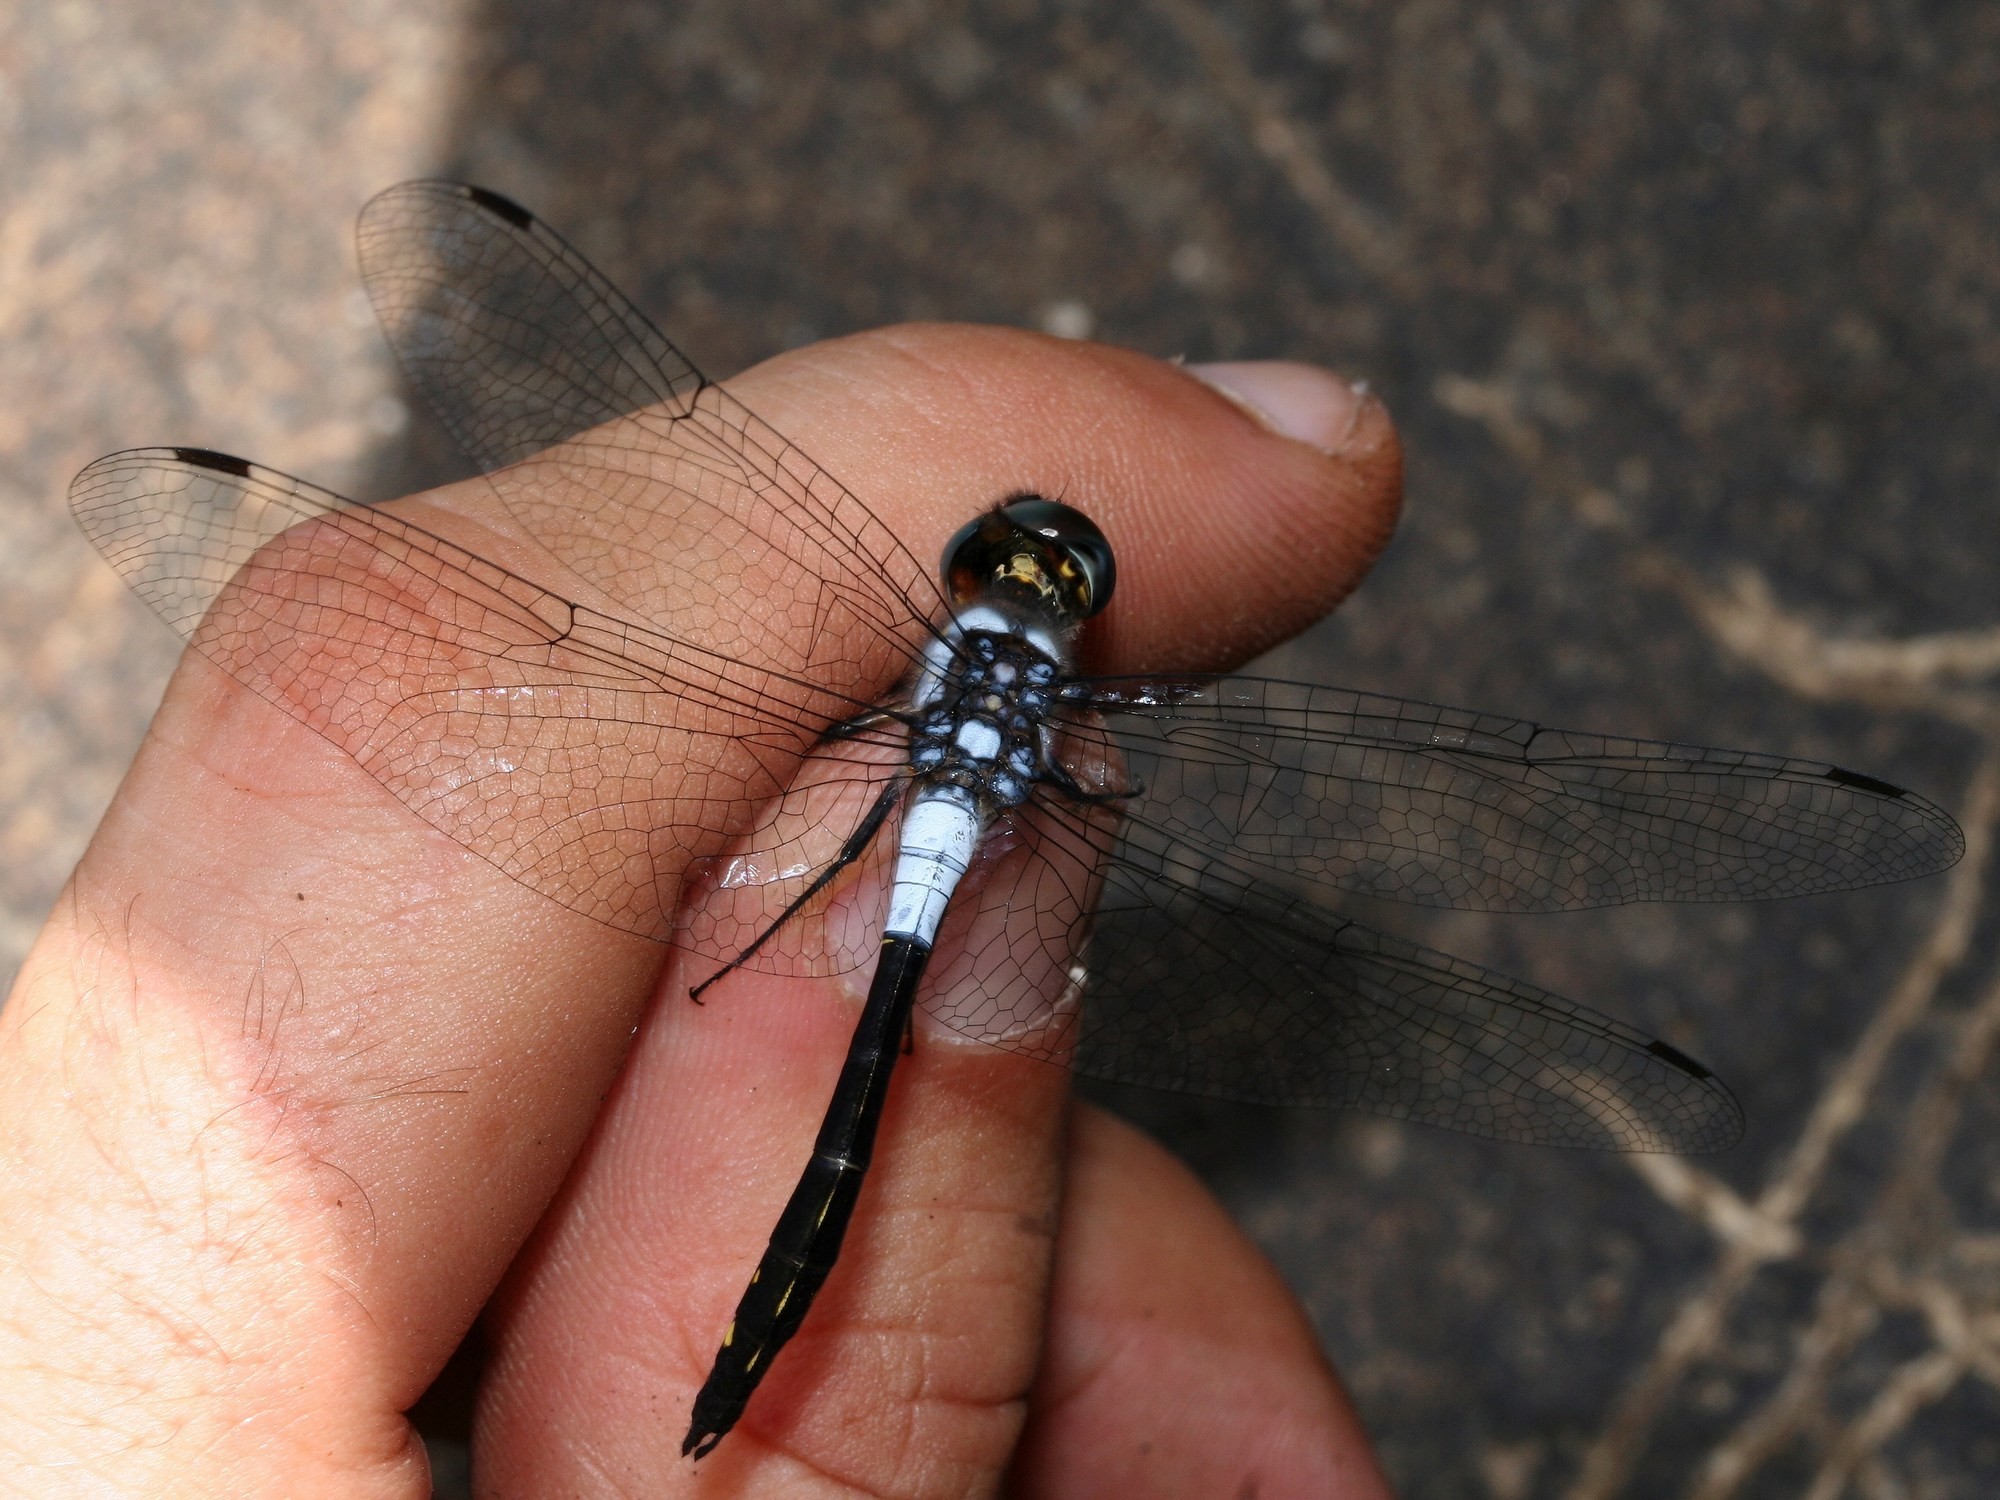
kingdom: Animalia
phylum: Arthropoda
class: Insecta
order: Odonata
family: Libellulidae
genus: Zygonyx
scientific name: Zygonyx ranavalonae
